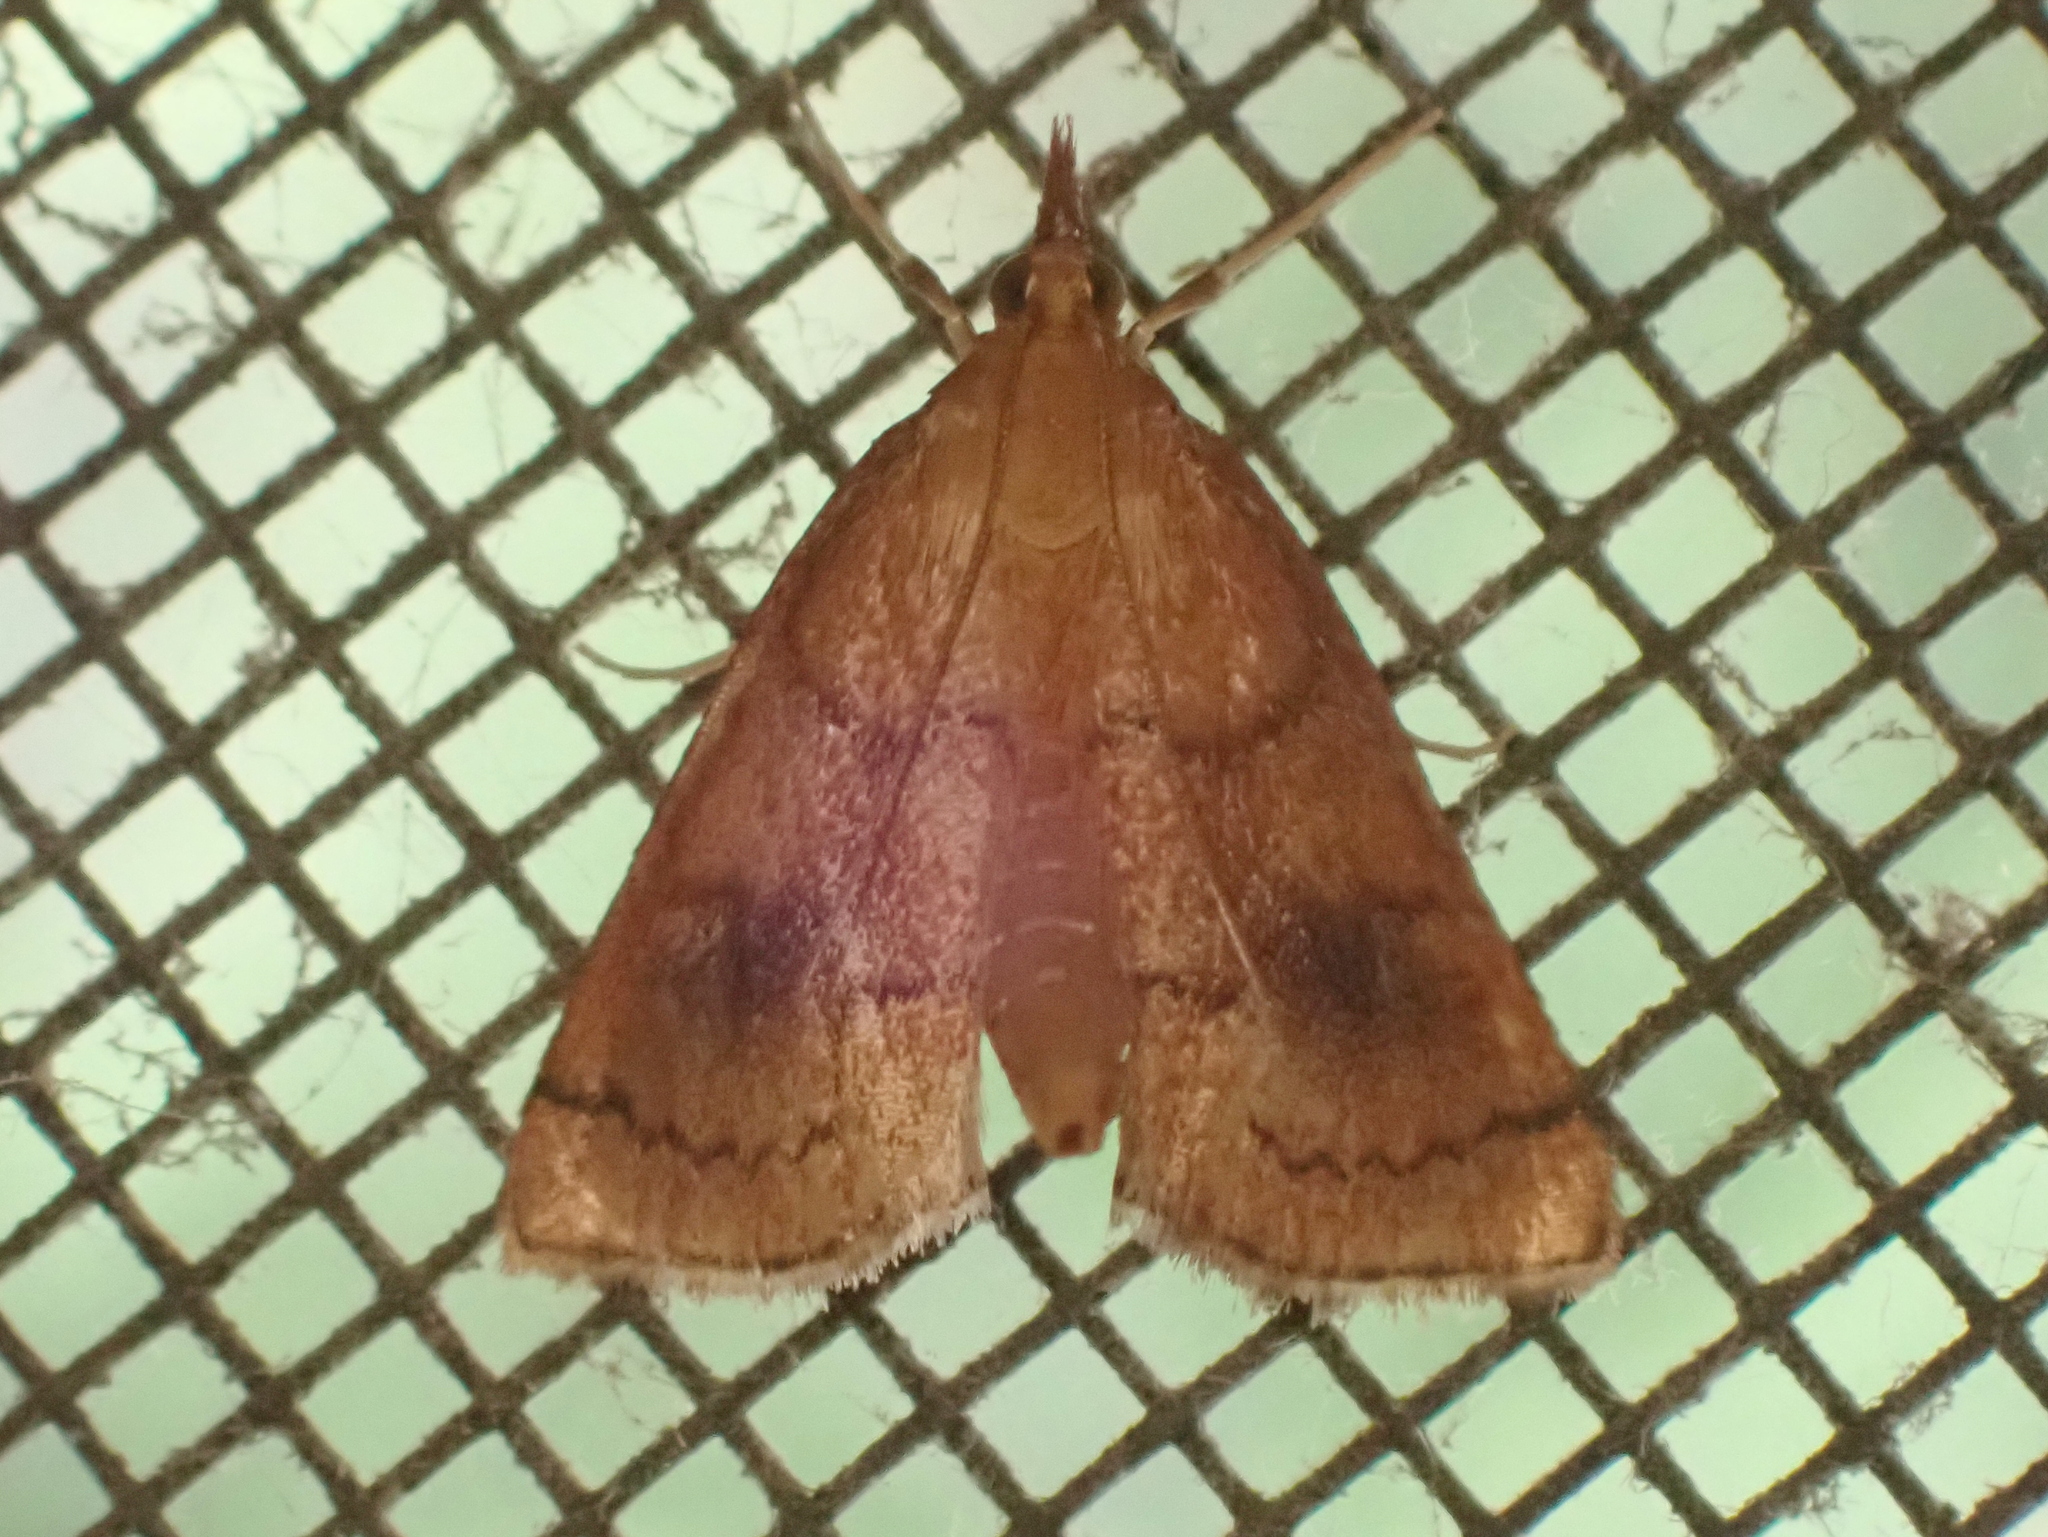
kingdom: Animalia
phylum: Arthropoda
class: Insecta
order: Lepidoptera
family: Crambidae
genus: Fumibotys
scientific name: Fumibotys fumalis
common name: Mint root borer moth
